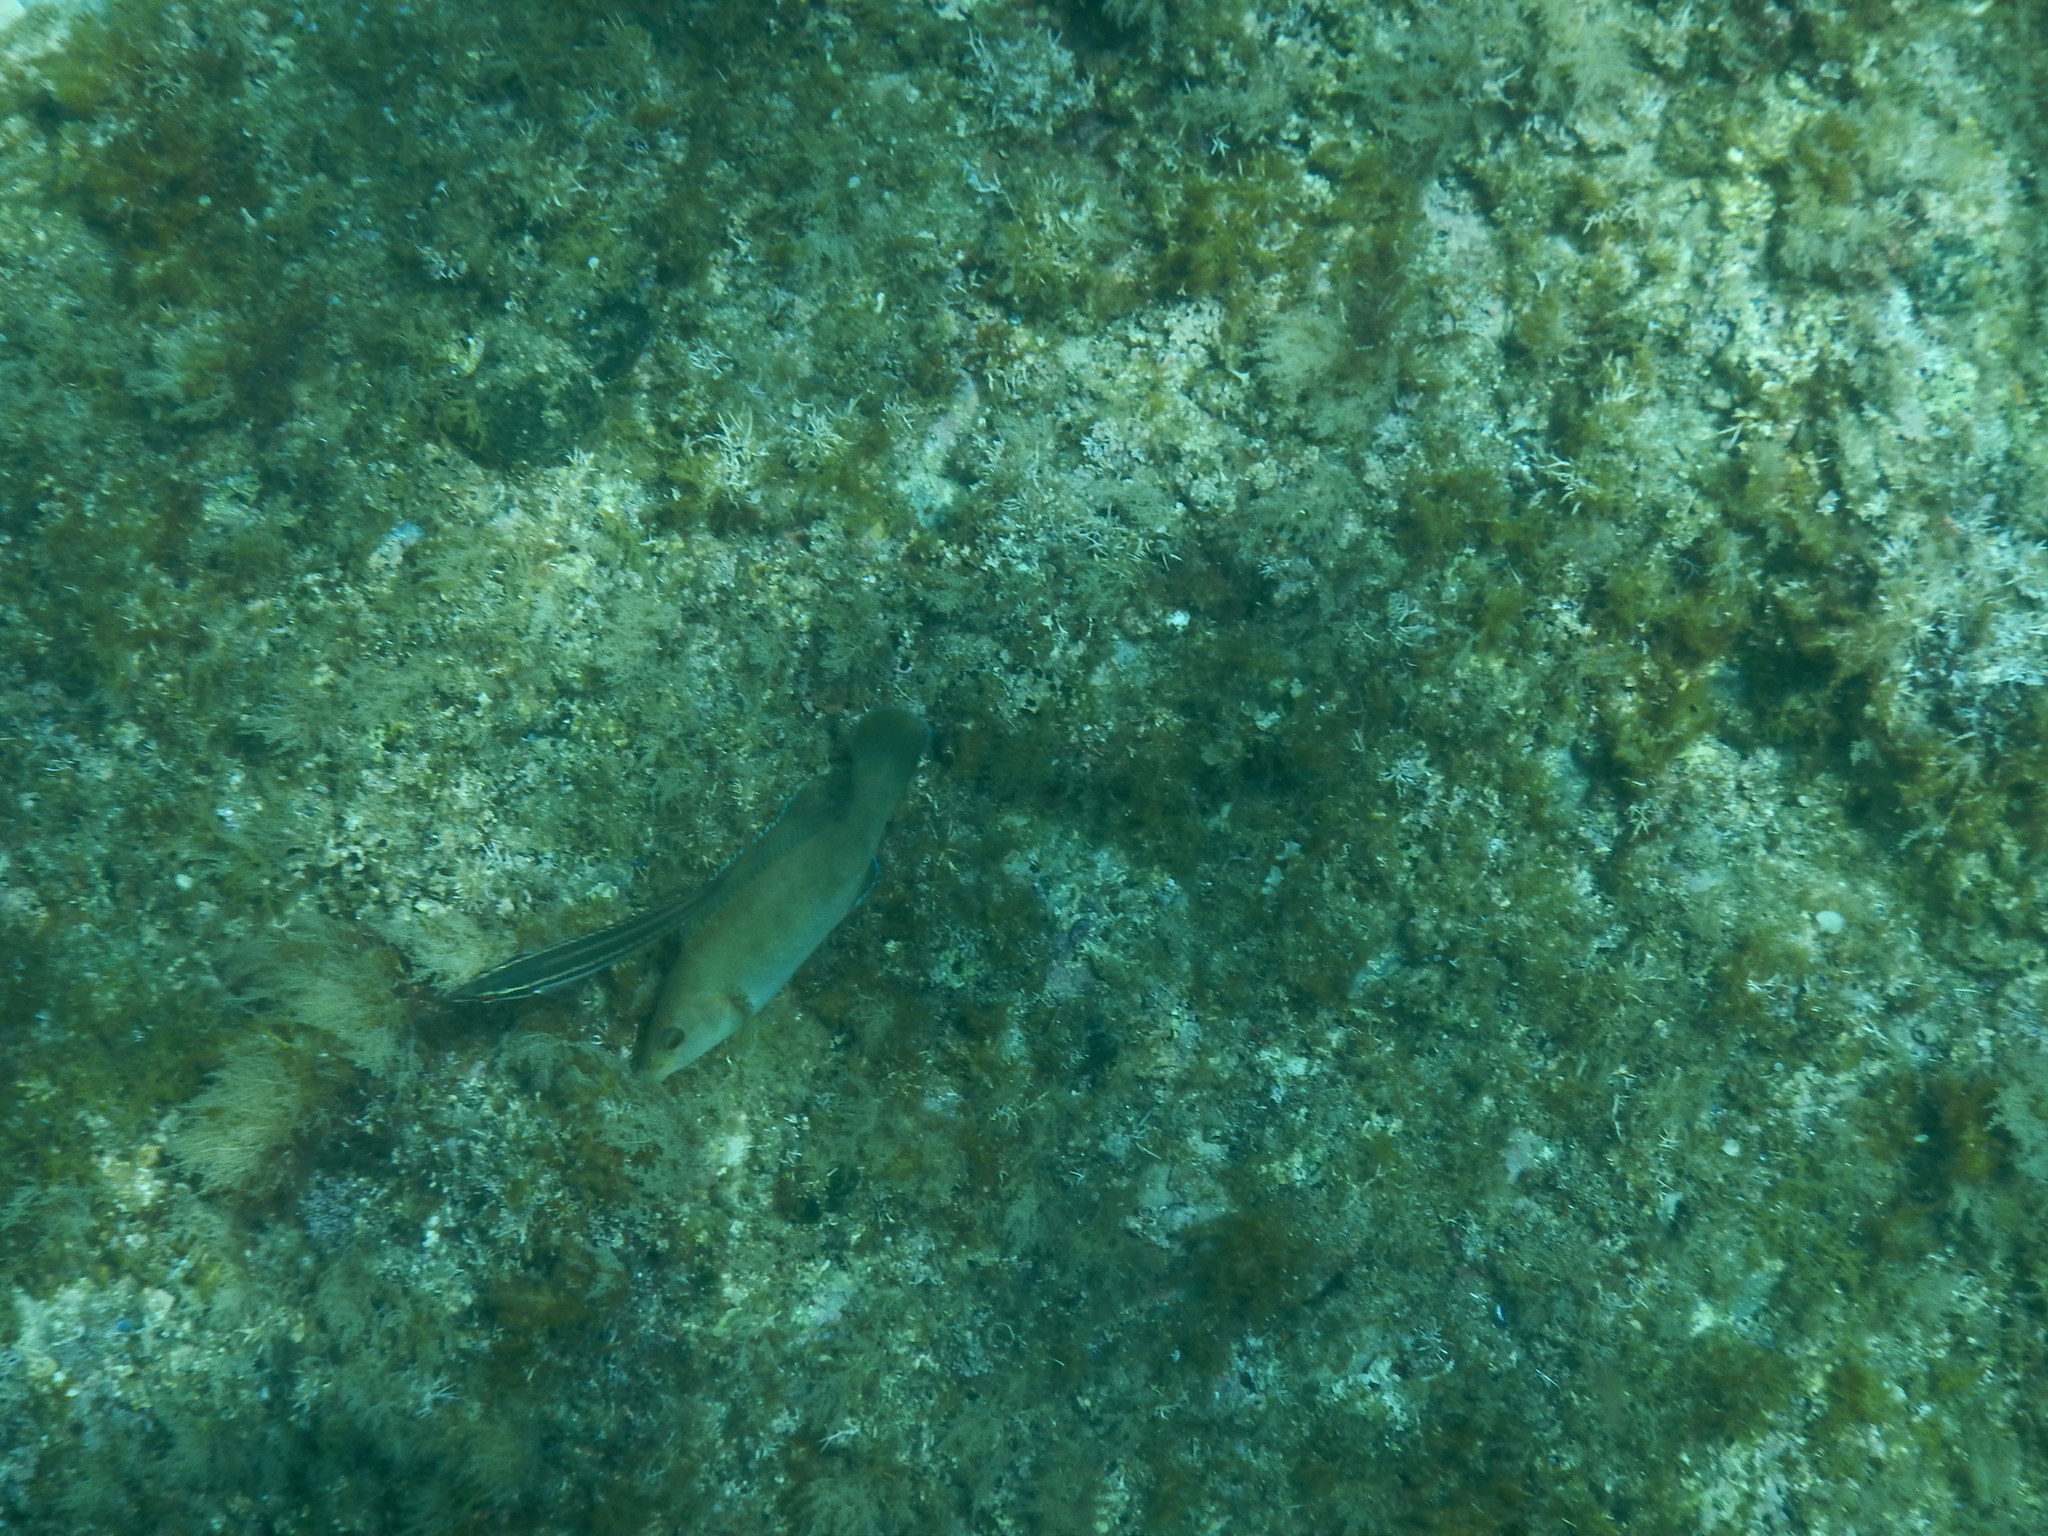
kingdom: Animalia
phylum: Chordata
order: Perciformes
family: Labridae
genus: Labrus
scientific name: Labrus merula
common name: Brown wrasse
